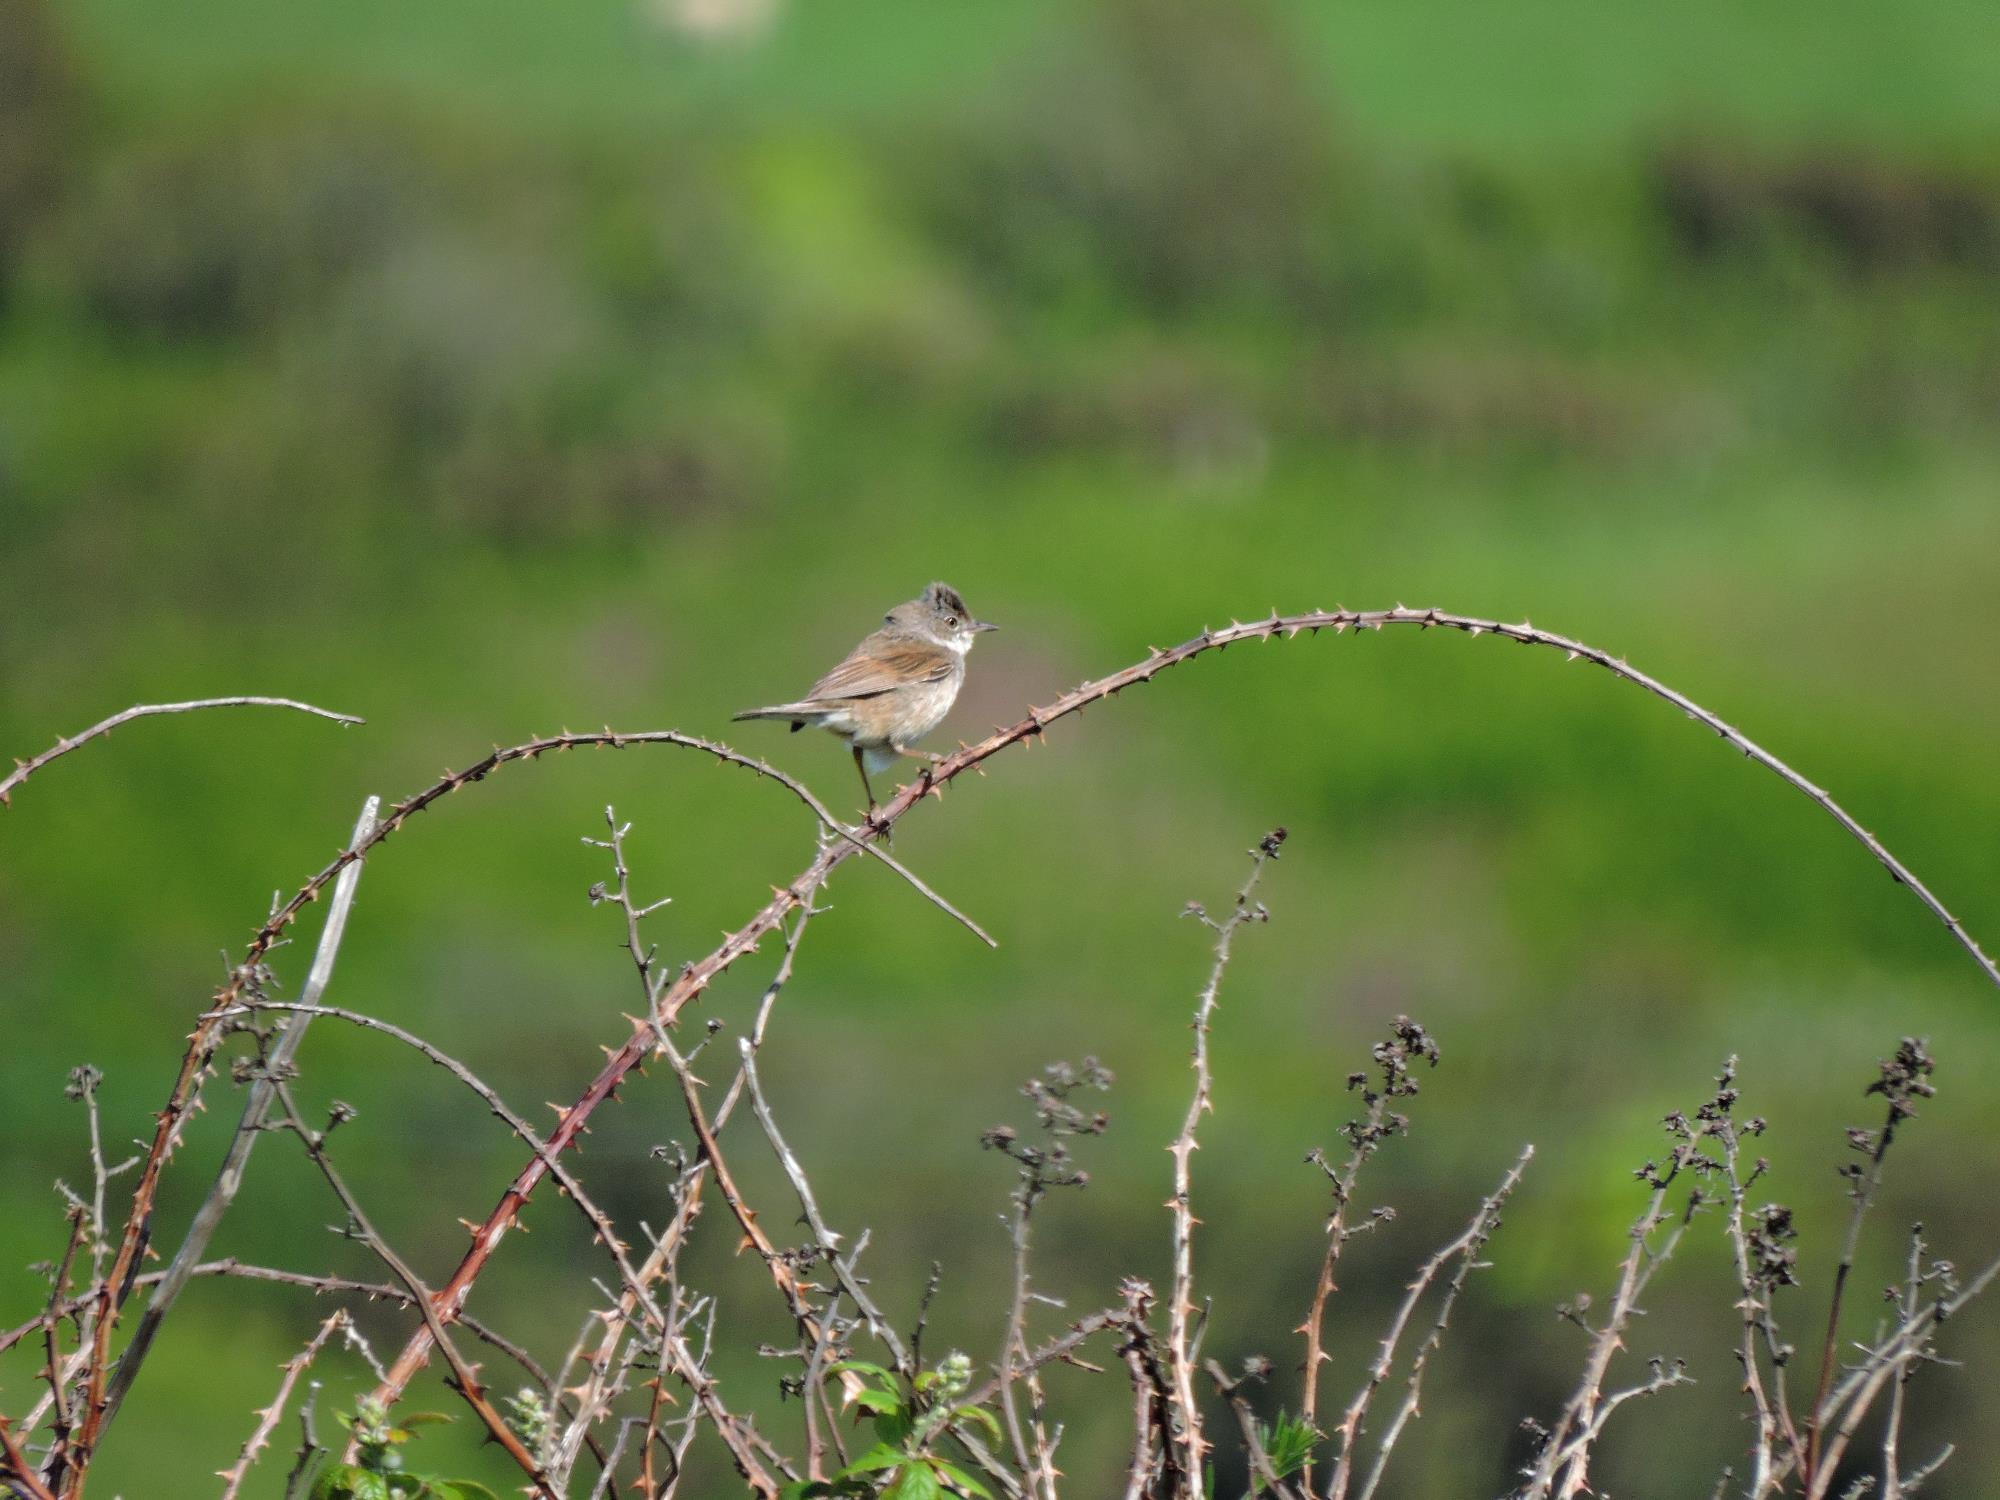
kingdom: Animalia
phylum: Chordata
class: Aves
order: Passeriformes
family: Sylviidae
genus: Sylvia
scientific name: Sylvia communis
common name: Common whitethroat
